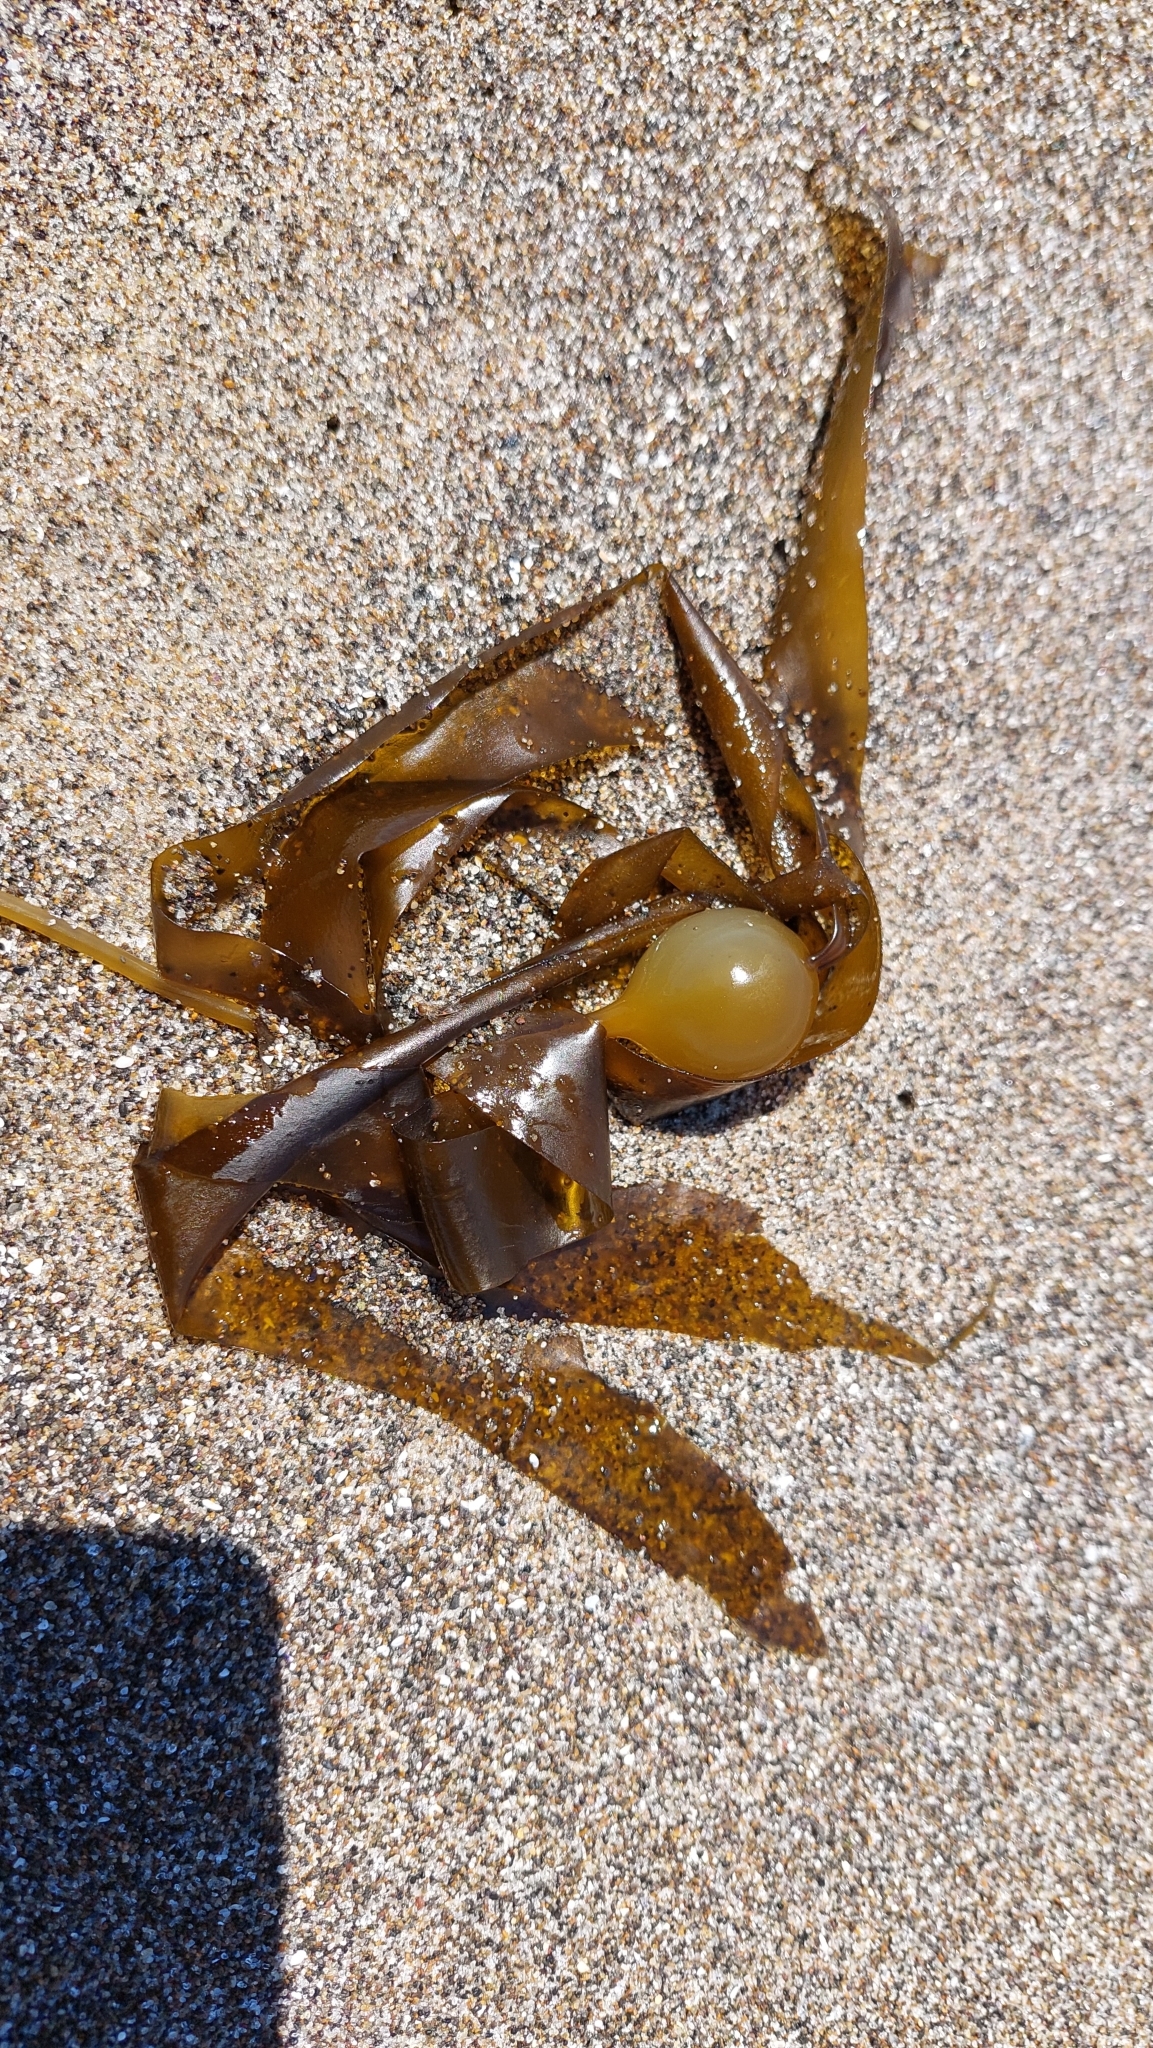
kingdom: Chromista
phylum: Ochrophyta
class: Phaeophyceae
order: Laminariales
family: Laminariaceae
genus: Nereocystis
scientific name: Nereocystis luetkeana
